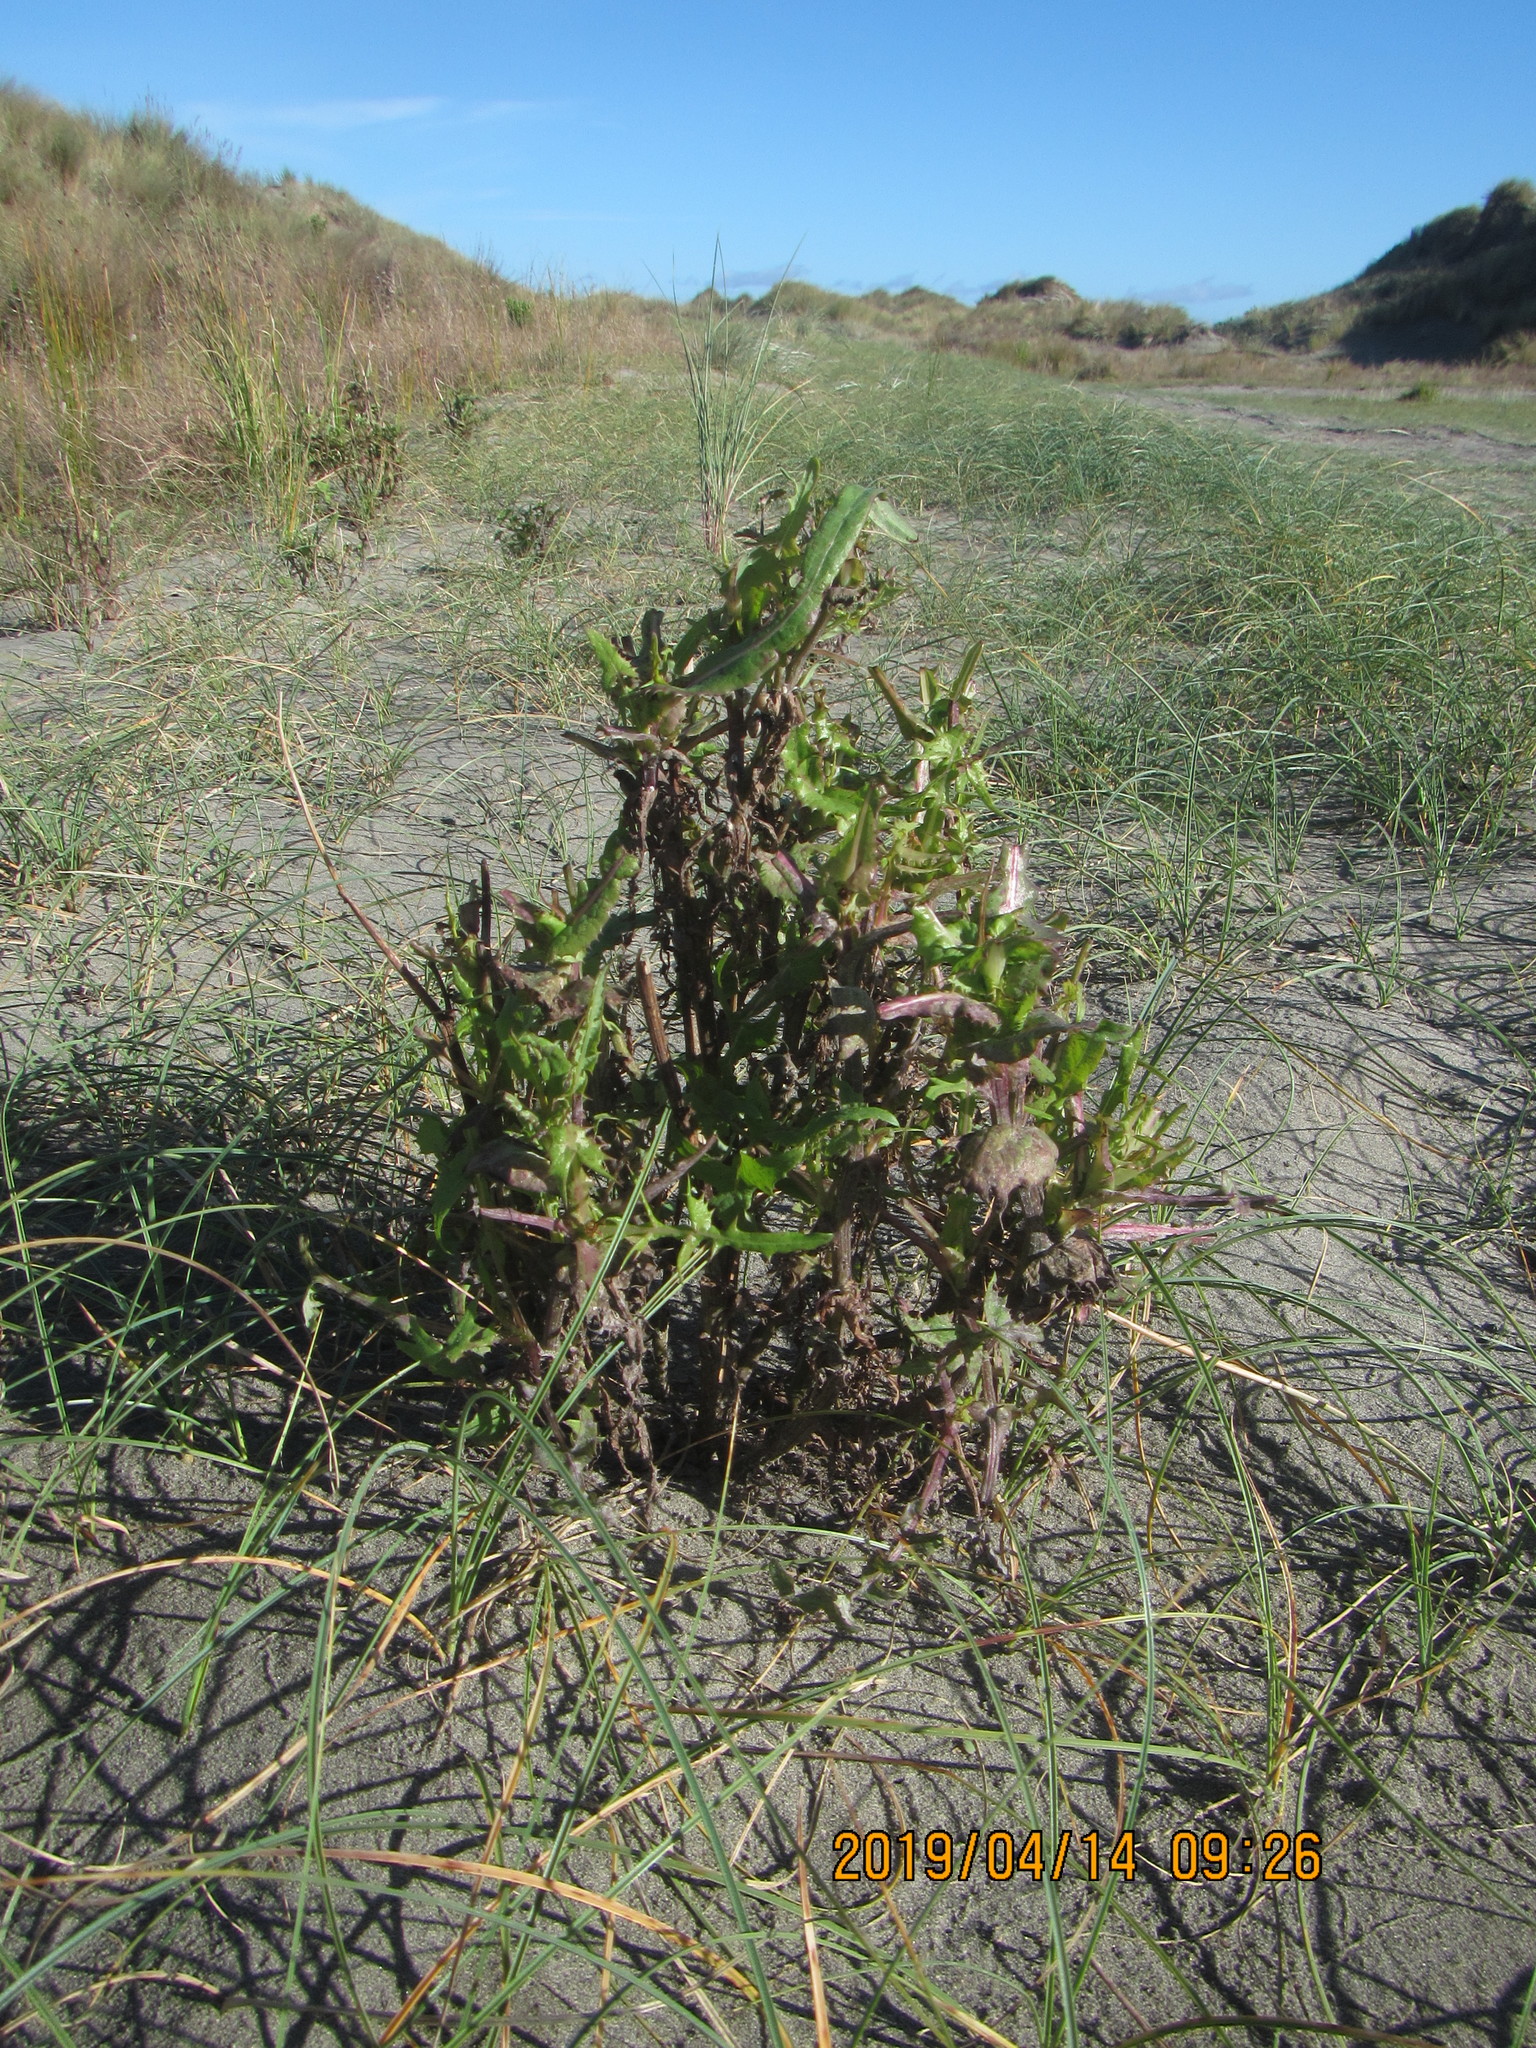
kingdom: Plantae
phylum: Tracheophyta
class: Magnoliopsida
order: Asterales
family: Asteraceae
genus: Sonchus
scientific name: Sonchus oleraceus
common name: Common sowthistle
